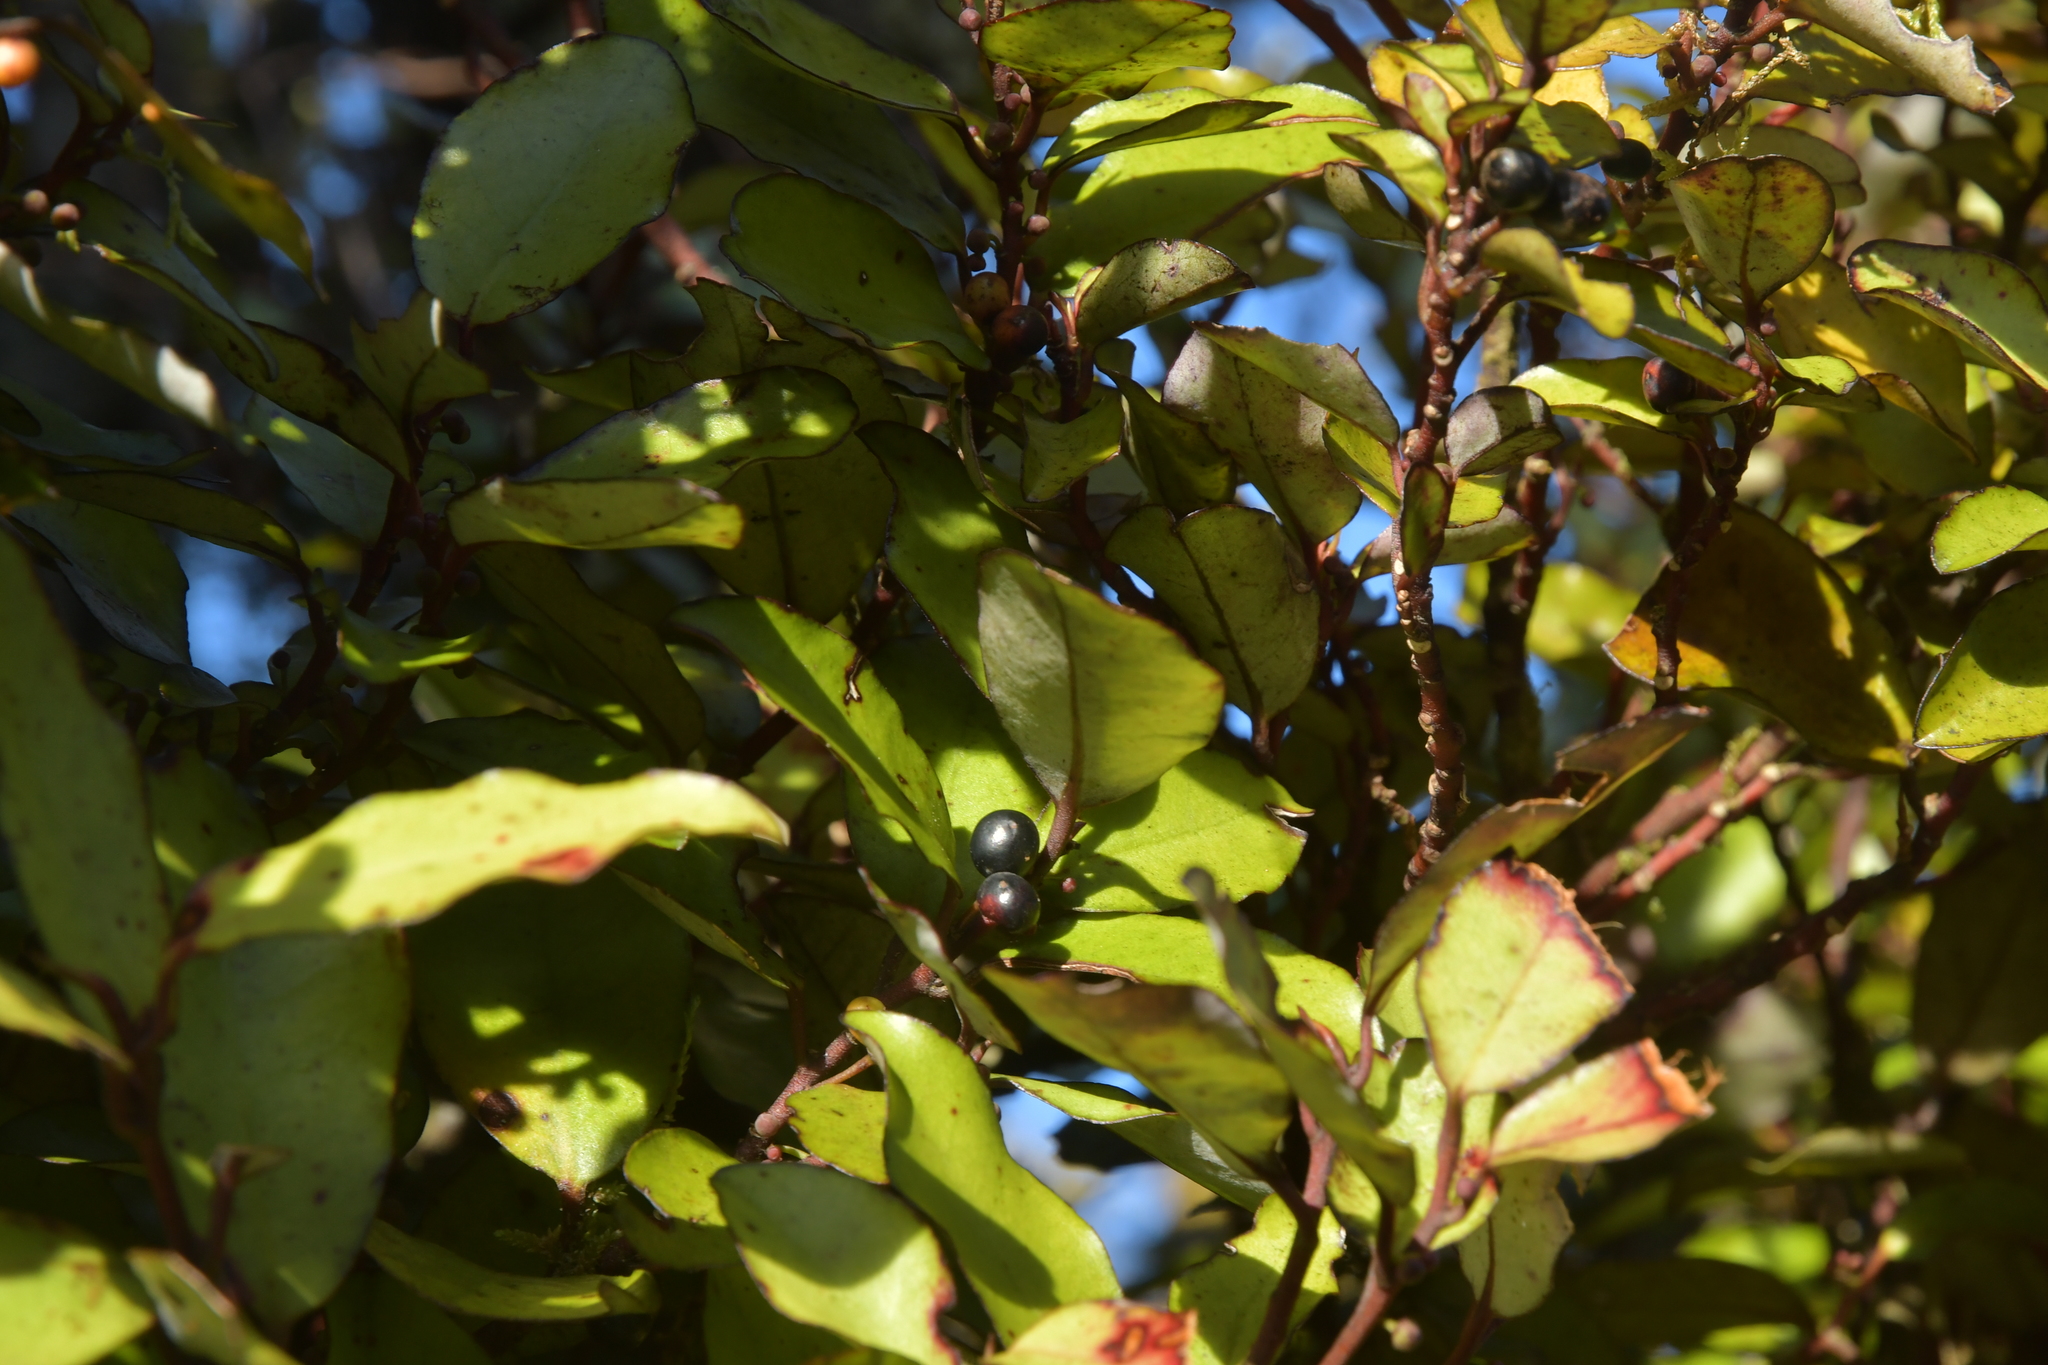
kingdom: Plantae
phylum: Tracheophyta
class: Magnoliopsida
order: Canellales
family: Winteraceae
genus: Pseudowintera
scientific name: Pseudowintera colorata
